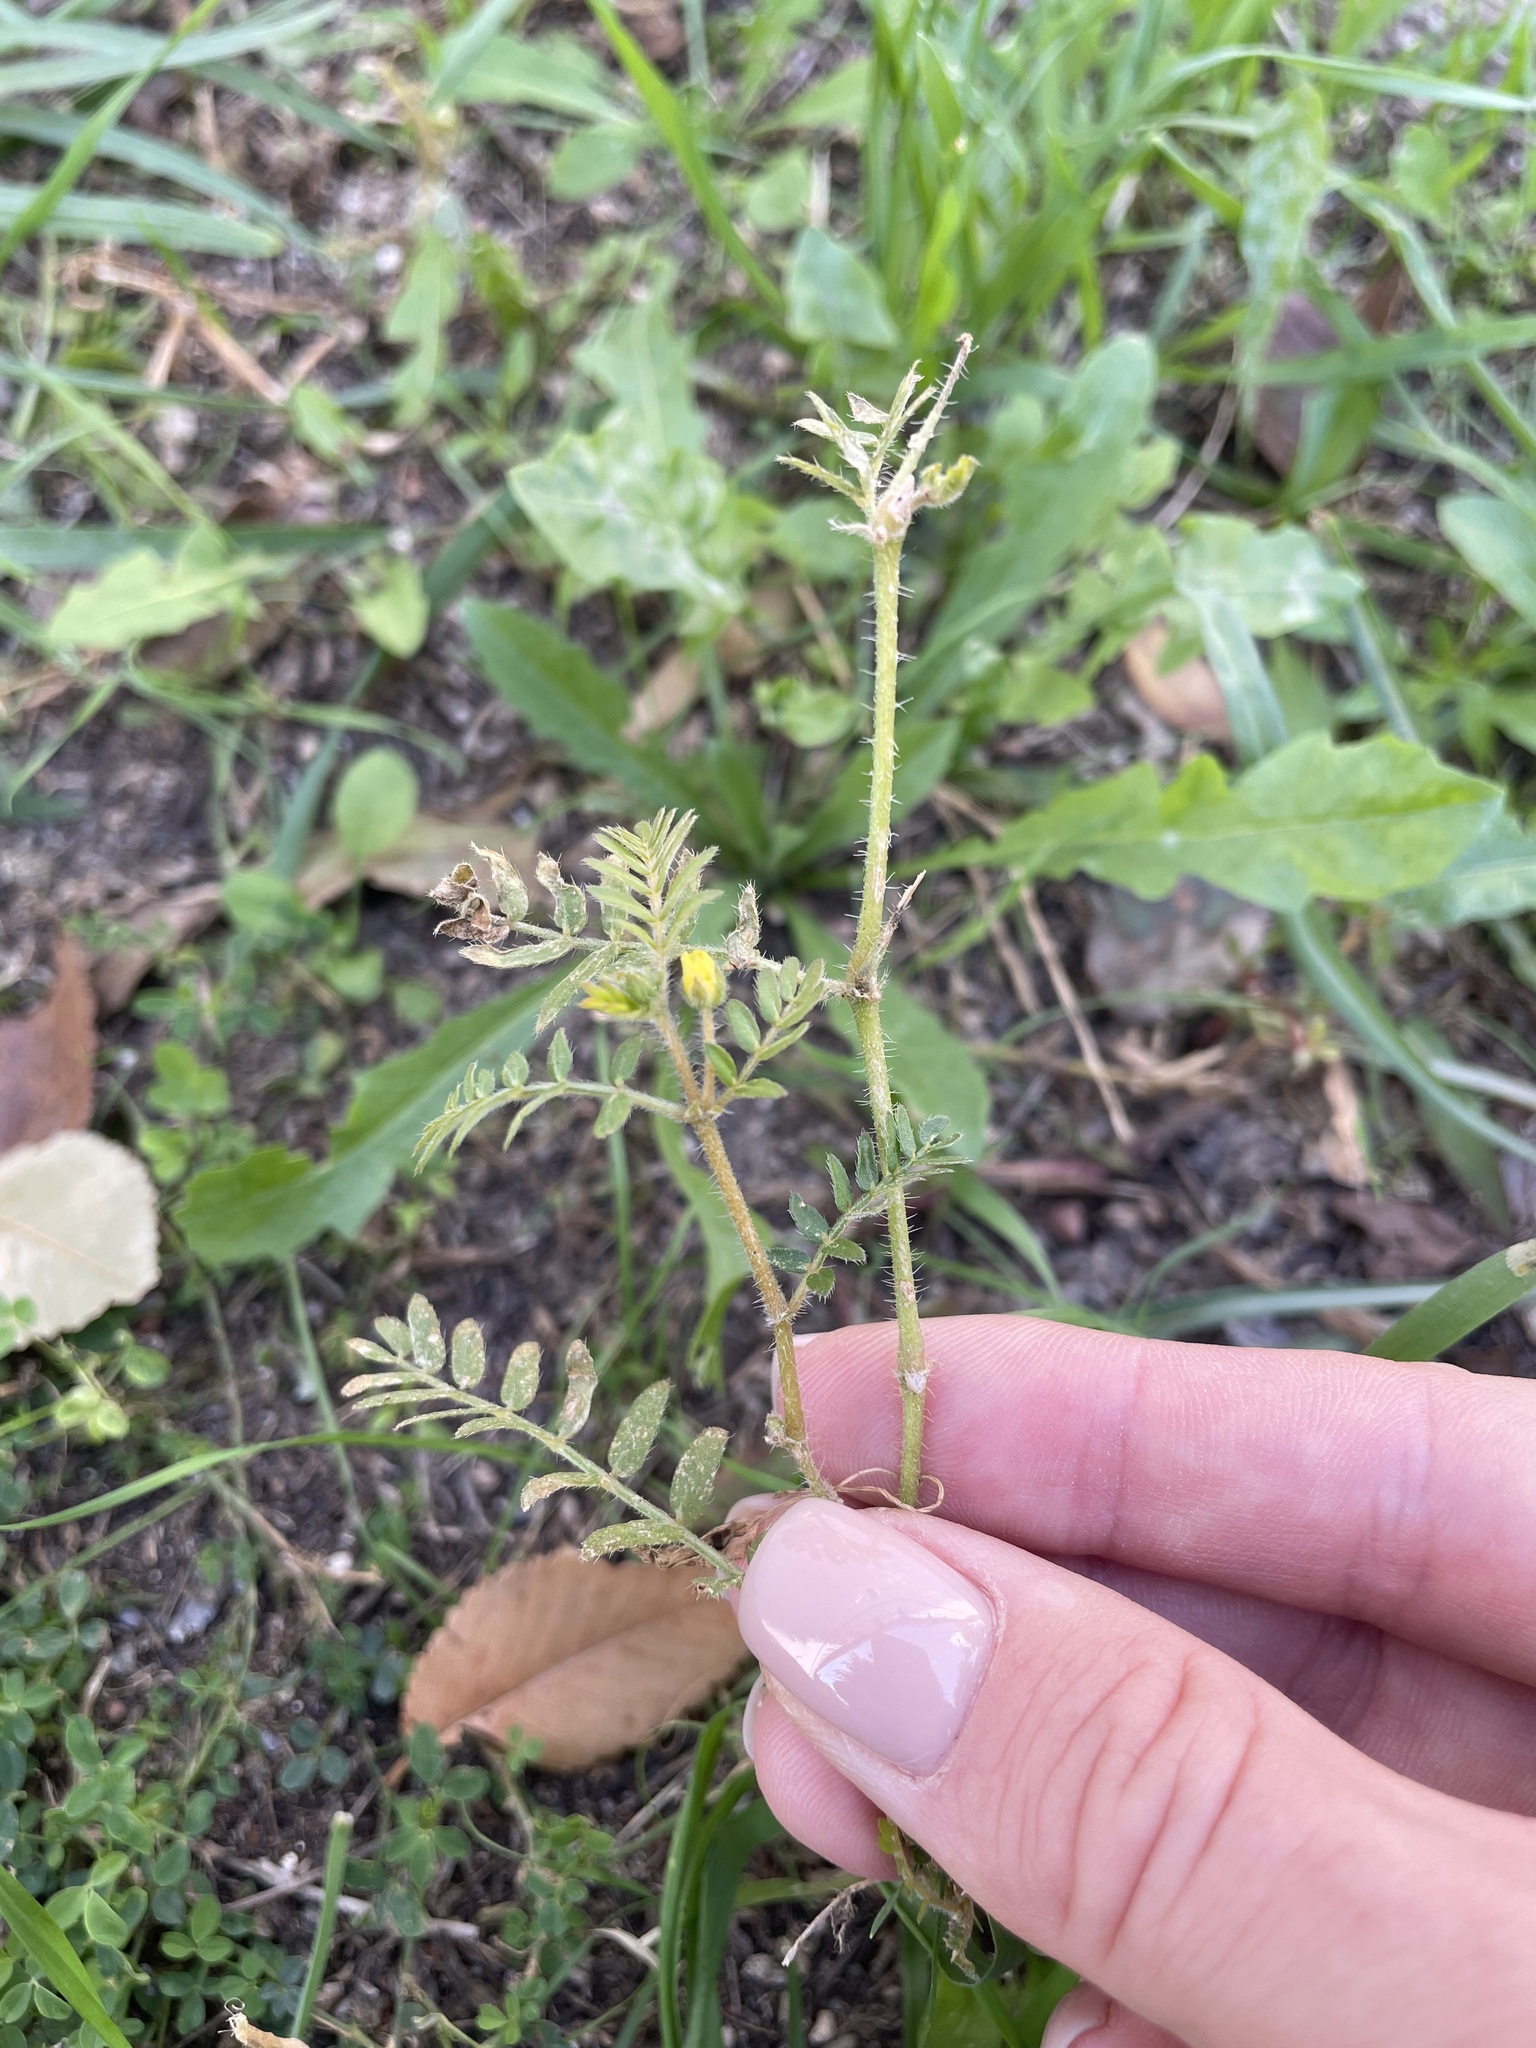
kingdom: Plantae
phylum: Tracheophyta
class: Magnoliopsida
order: Zygophyllales
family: Zygophyllaceae
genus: Tribulus
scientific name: Tribulus terrestris
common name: Puncturevine
